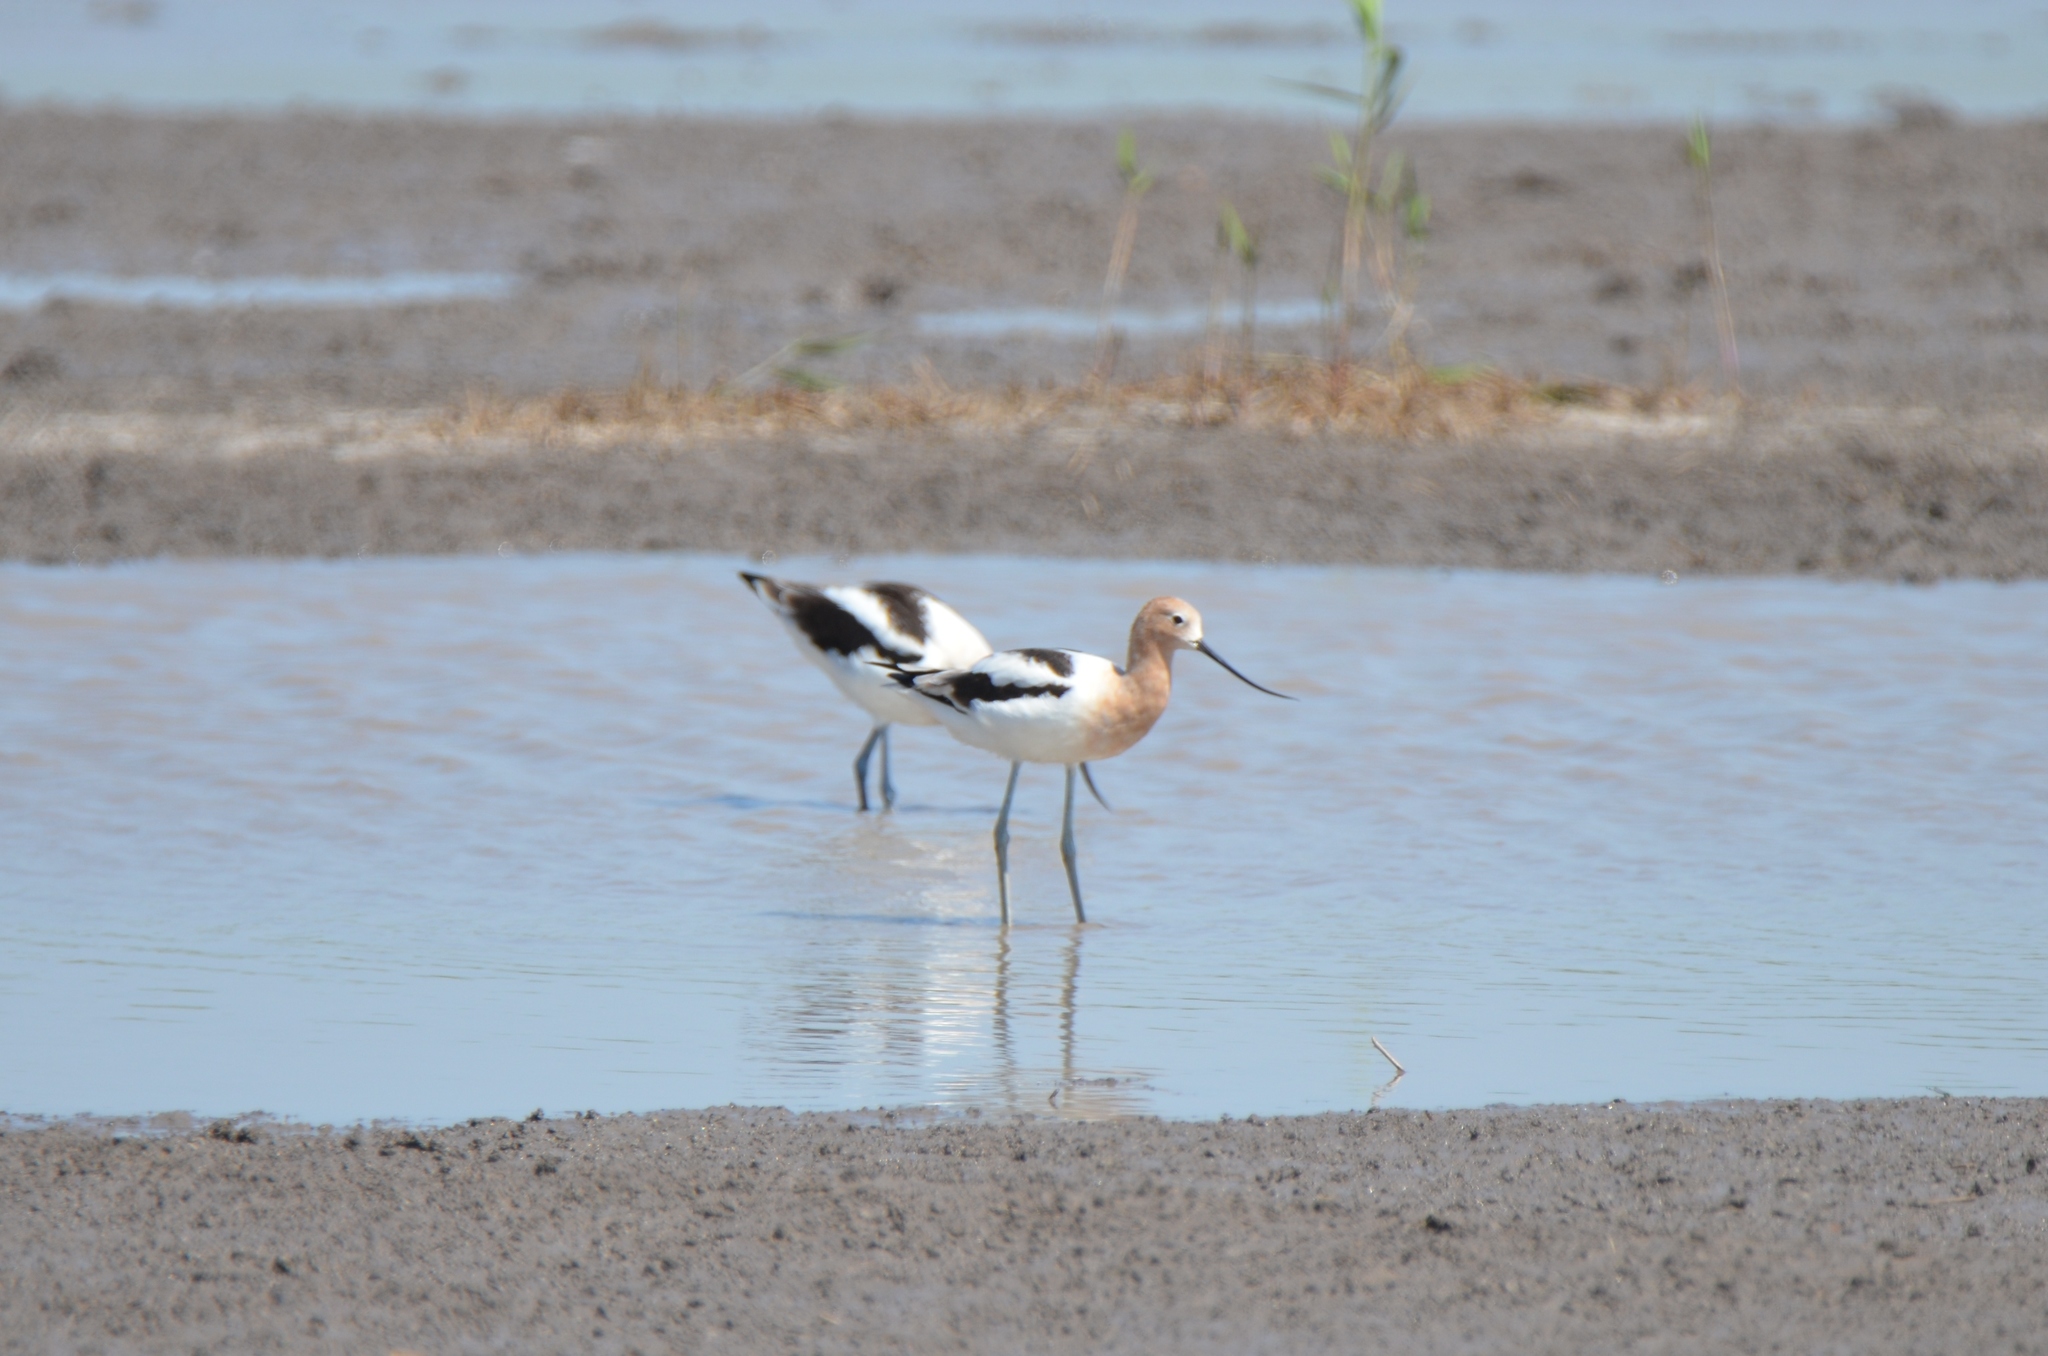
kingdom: Animalia
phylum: Chordata
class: Aves
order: Charadriiformes
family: Recurvirostridae
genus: Recurvirostra
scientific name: Recurvirostra americana
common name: American avocet
